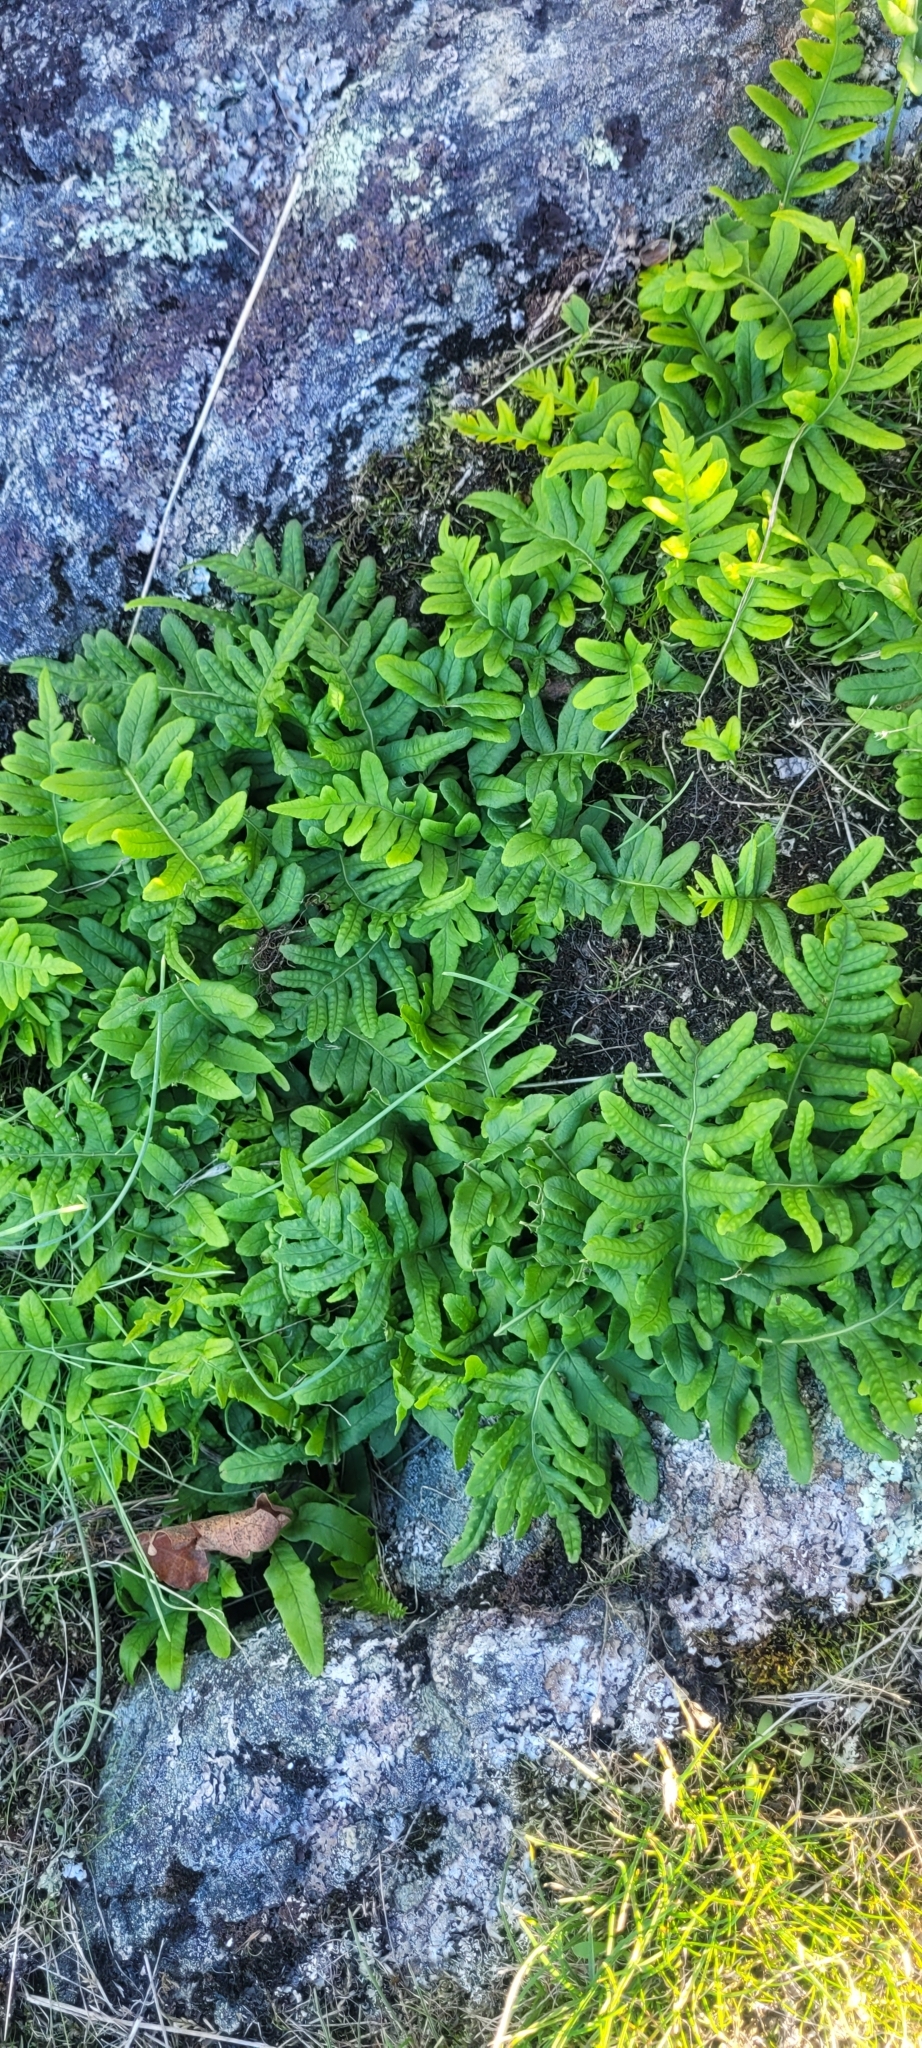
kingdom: Plantae
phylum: Tracheophyta
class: Polypodiopsida
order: Polypodiales
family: Polypodiaceae
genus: Polypodium
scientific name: Polypodium glycyrrhiza
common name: Licorice fern
